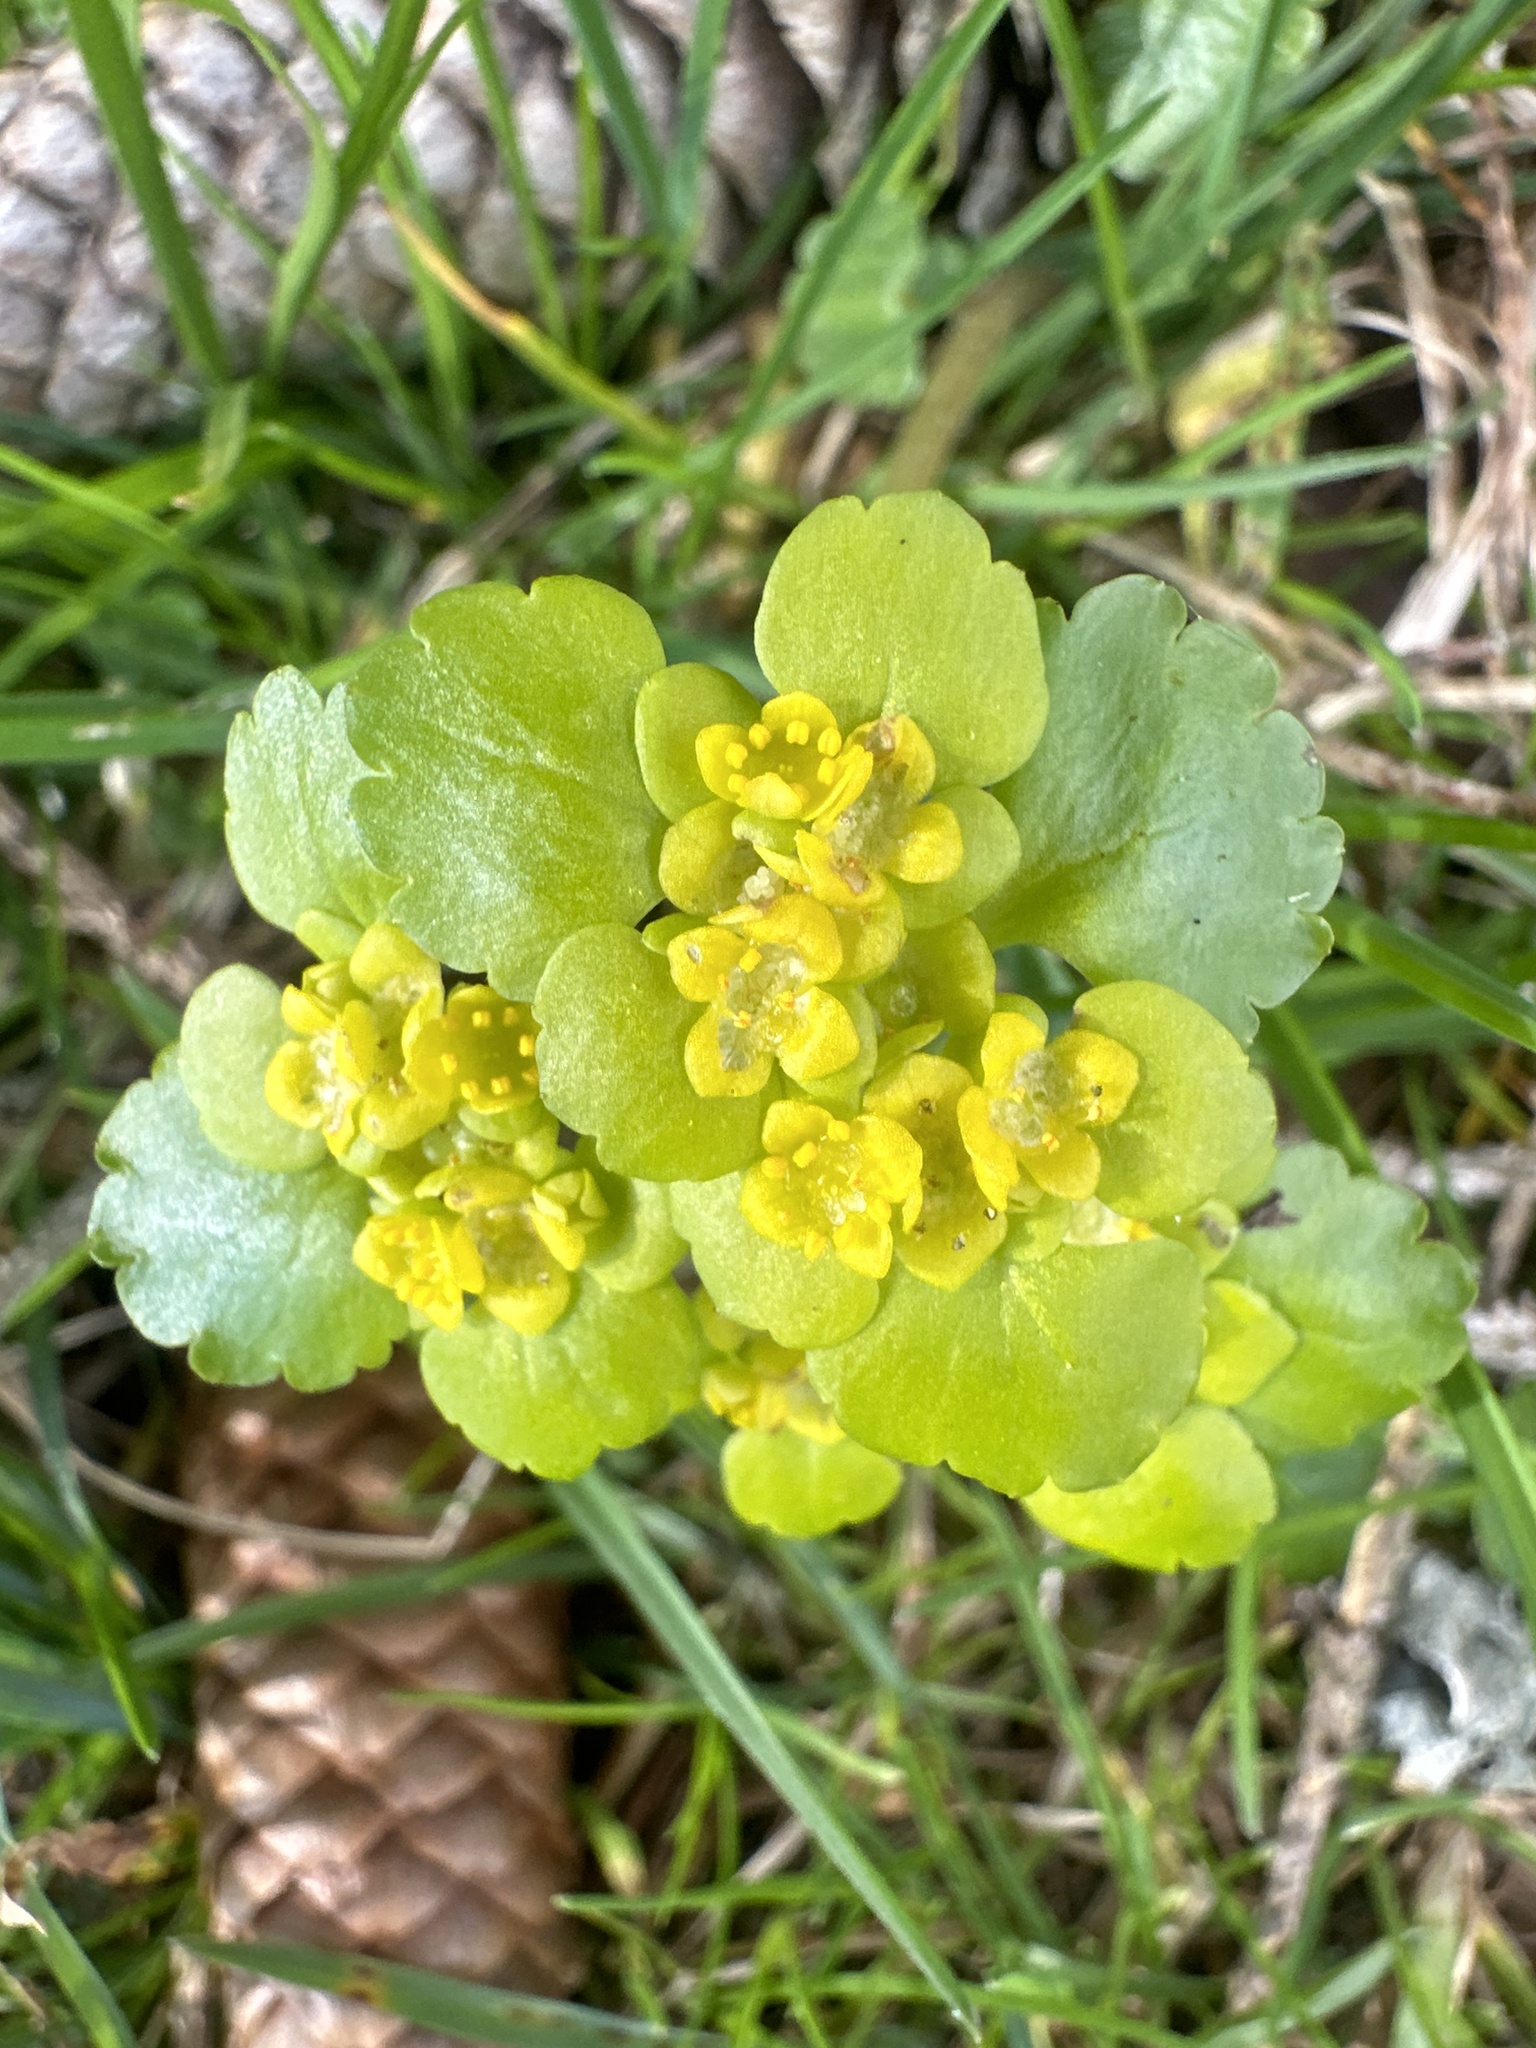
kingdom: Plantae
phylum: Tracheophyta
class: Magnoliopsida
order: Saxifragales
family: Saxifragaceae
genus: Chrysosplenium
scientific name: Chrysosplenium alternifolium
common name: Alternate-leaved golden-saxifrage
